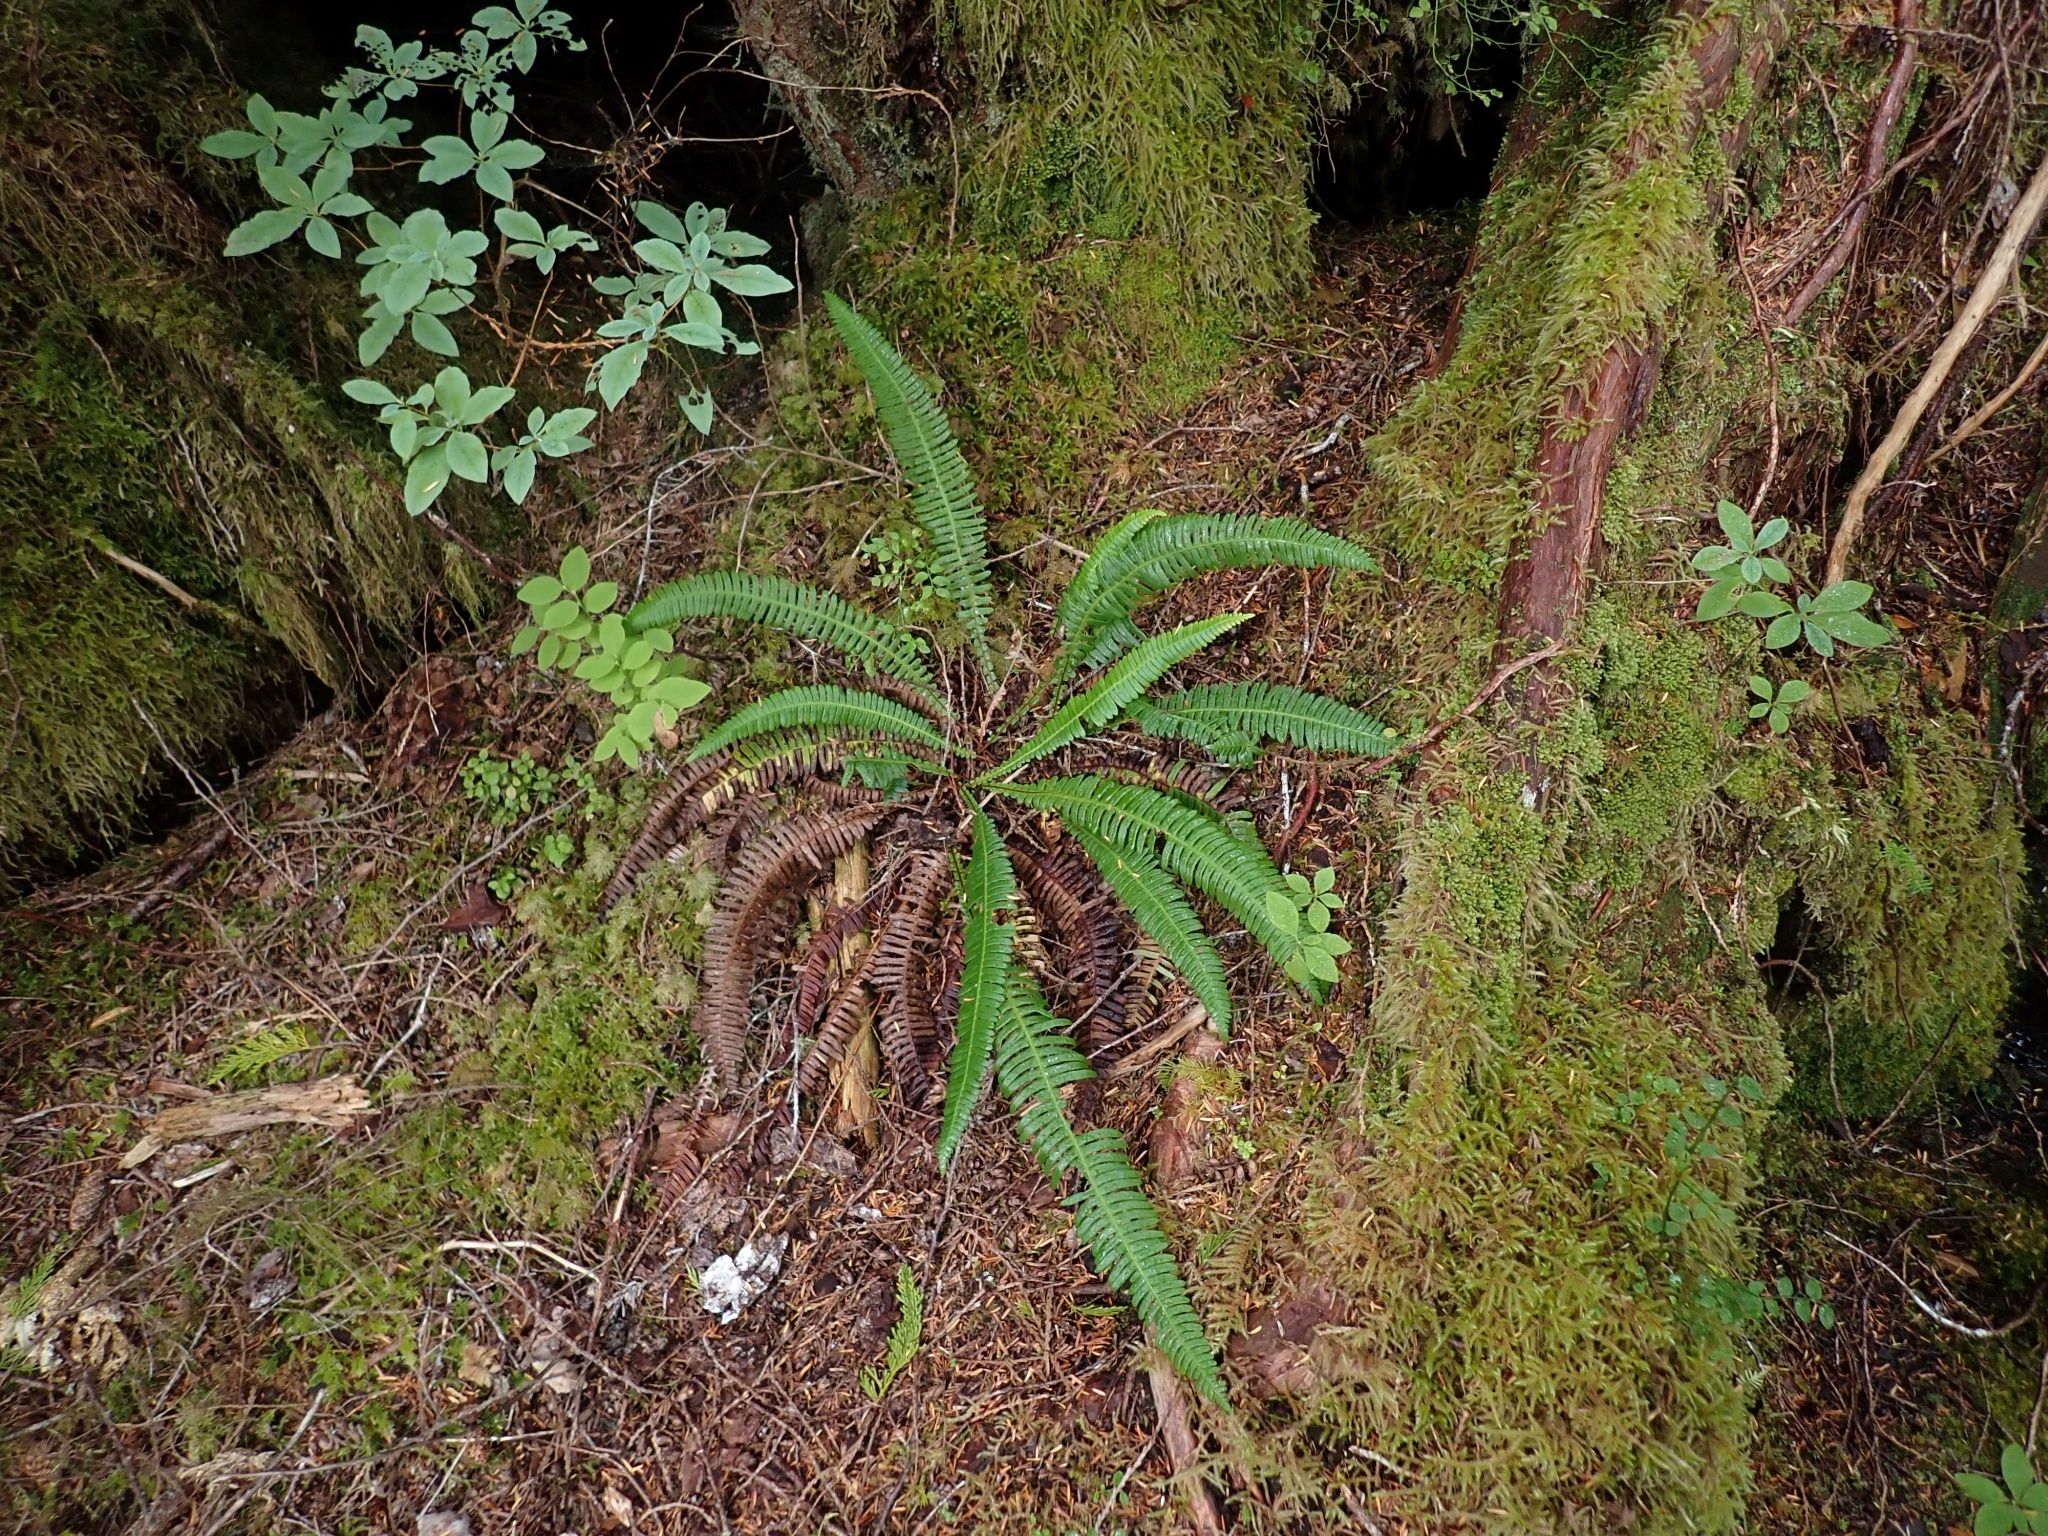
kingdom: Plantae
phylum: Tracheophyta
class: Polypodiopsida
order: Polypodiales
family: Blechnaceae
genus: Struthiopteris
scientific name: Struthiopteris spicant
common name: Deer fern
